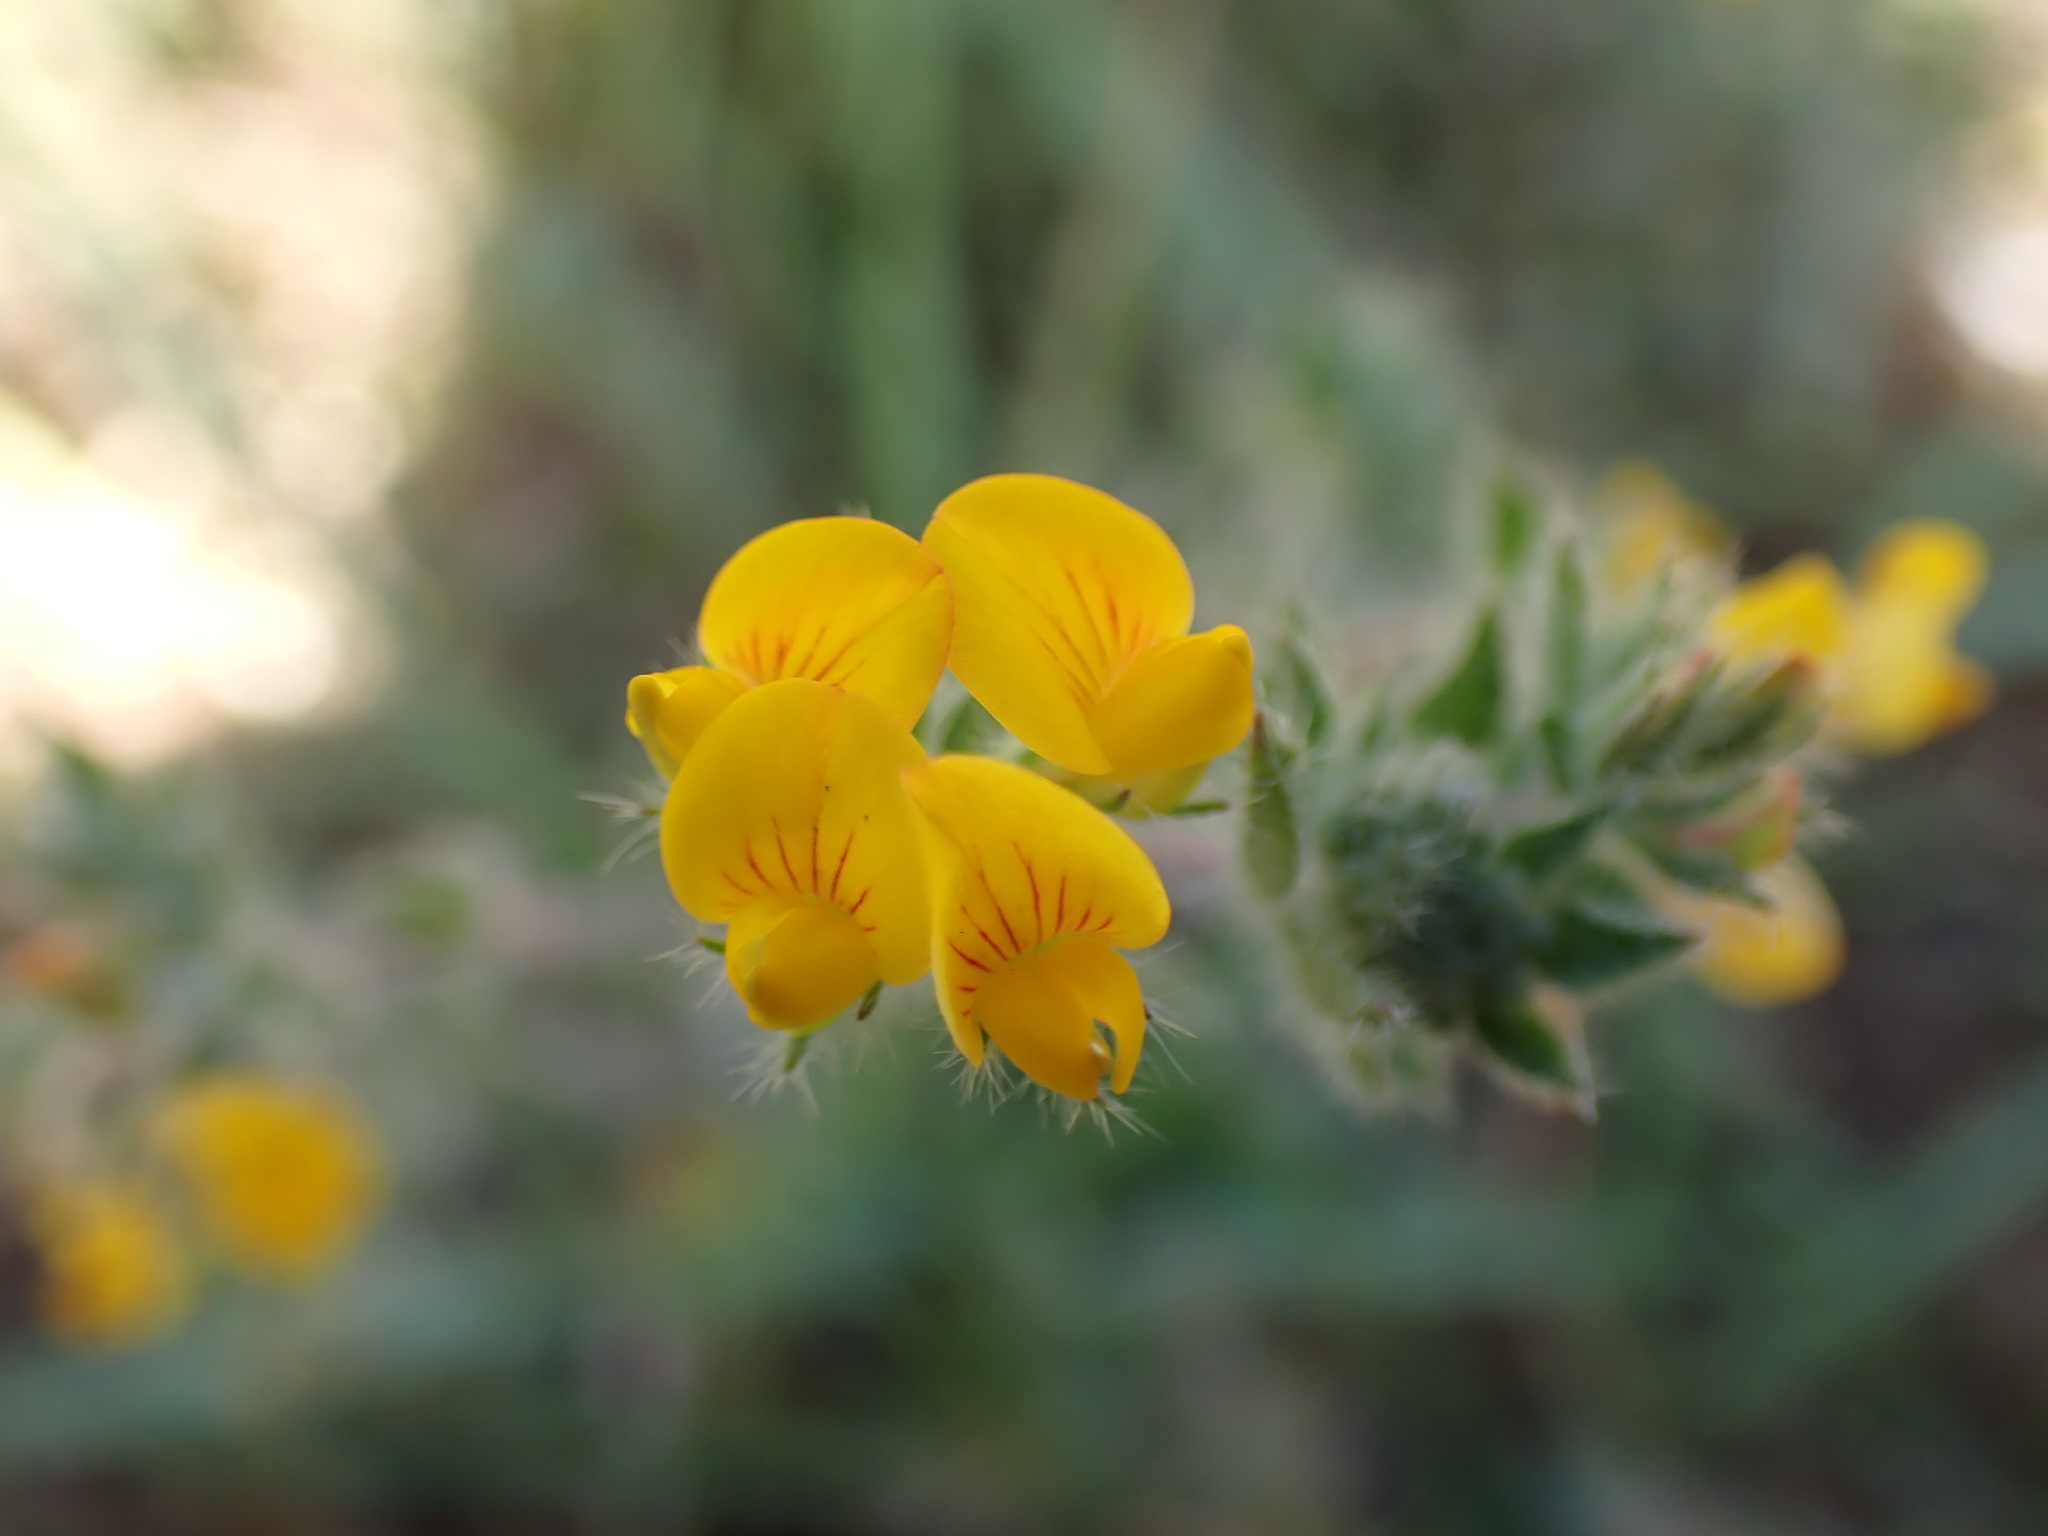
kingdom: Plantae
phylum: Tracheophyta
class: Magnoliopsida
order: Fabales
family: Fabaceae
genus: Lotus
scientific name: Lotus subbiflorus
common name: Hairy bird's-foot trefoil
